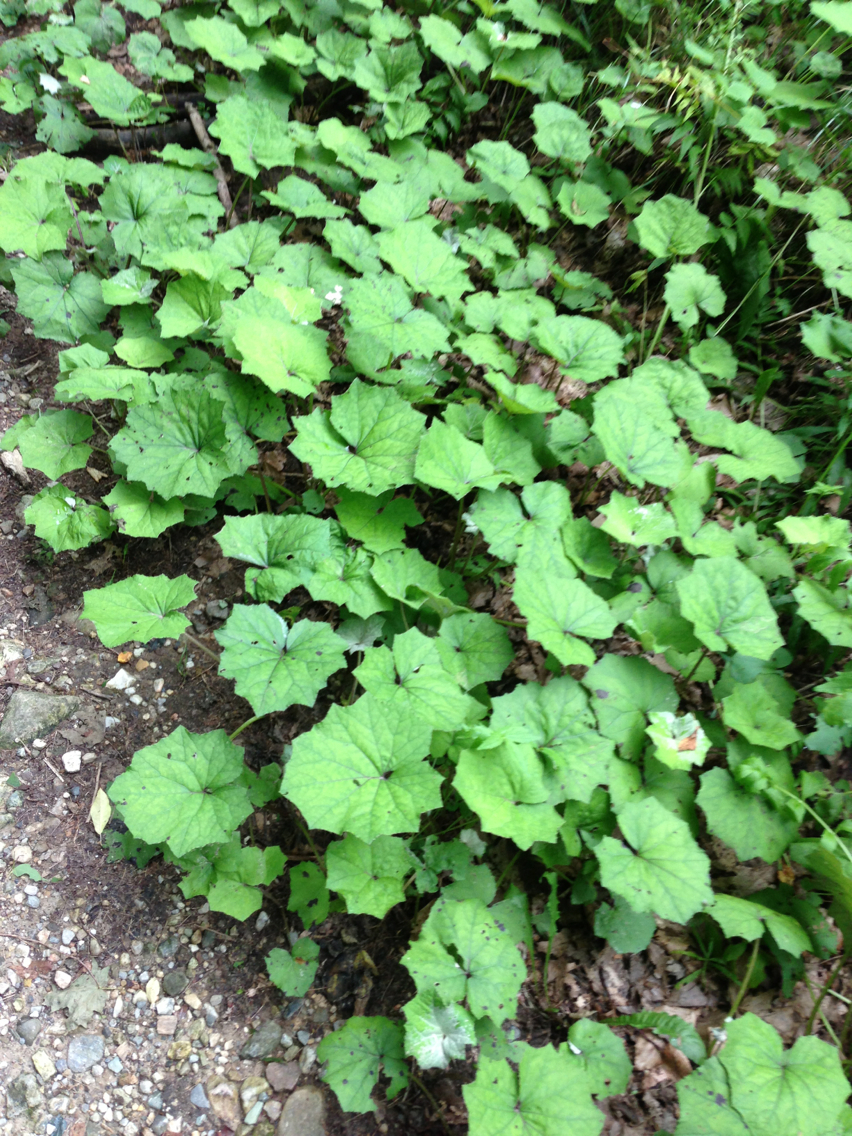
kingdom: Plantae
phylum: Tracheophyta
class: Magnoliopsida
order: Asterales
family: Asteraceae
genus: Tussilago
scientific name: Tussilago farfara
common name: Coltsfoot
